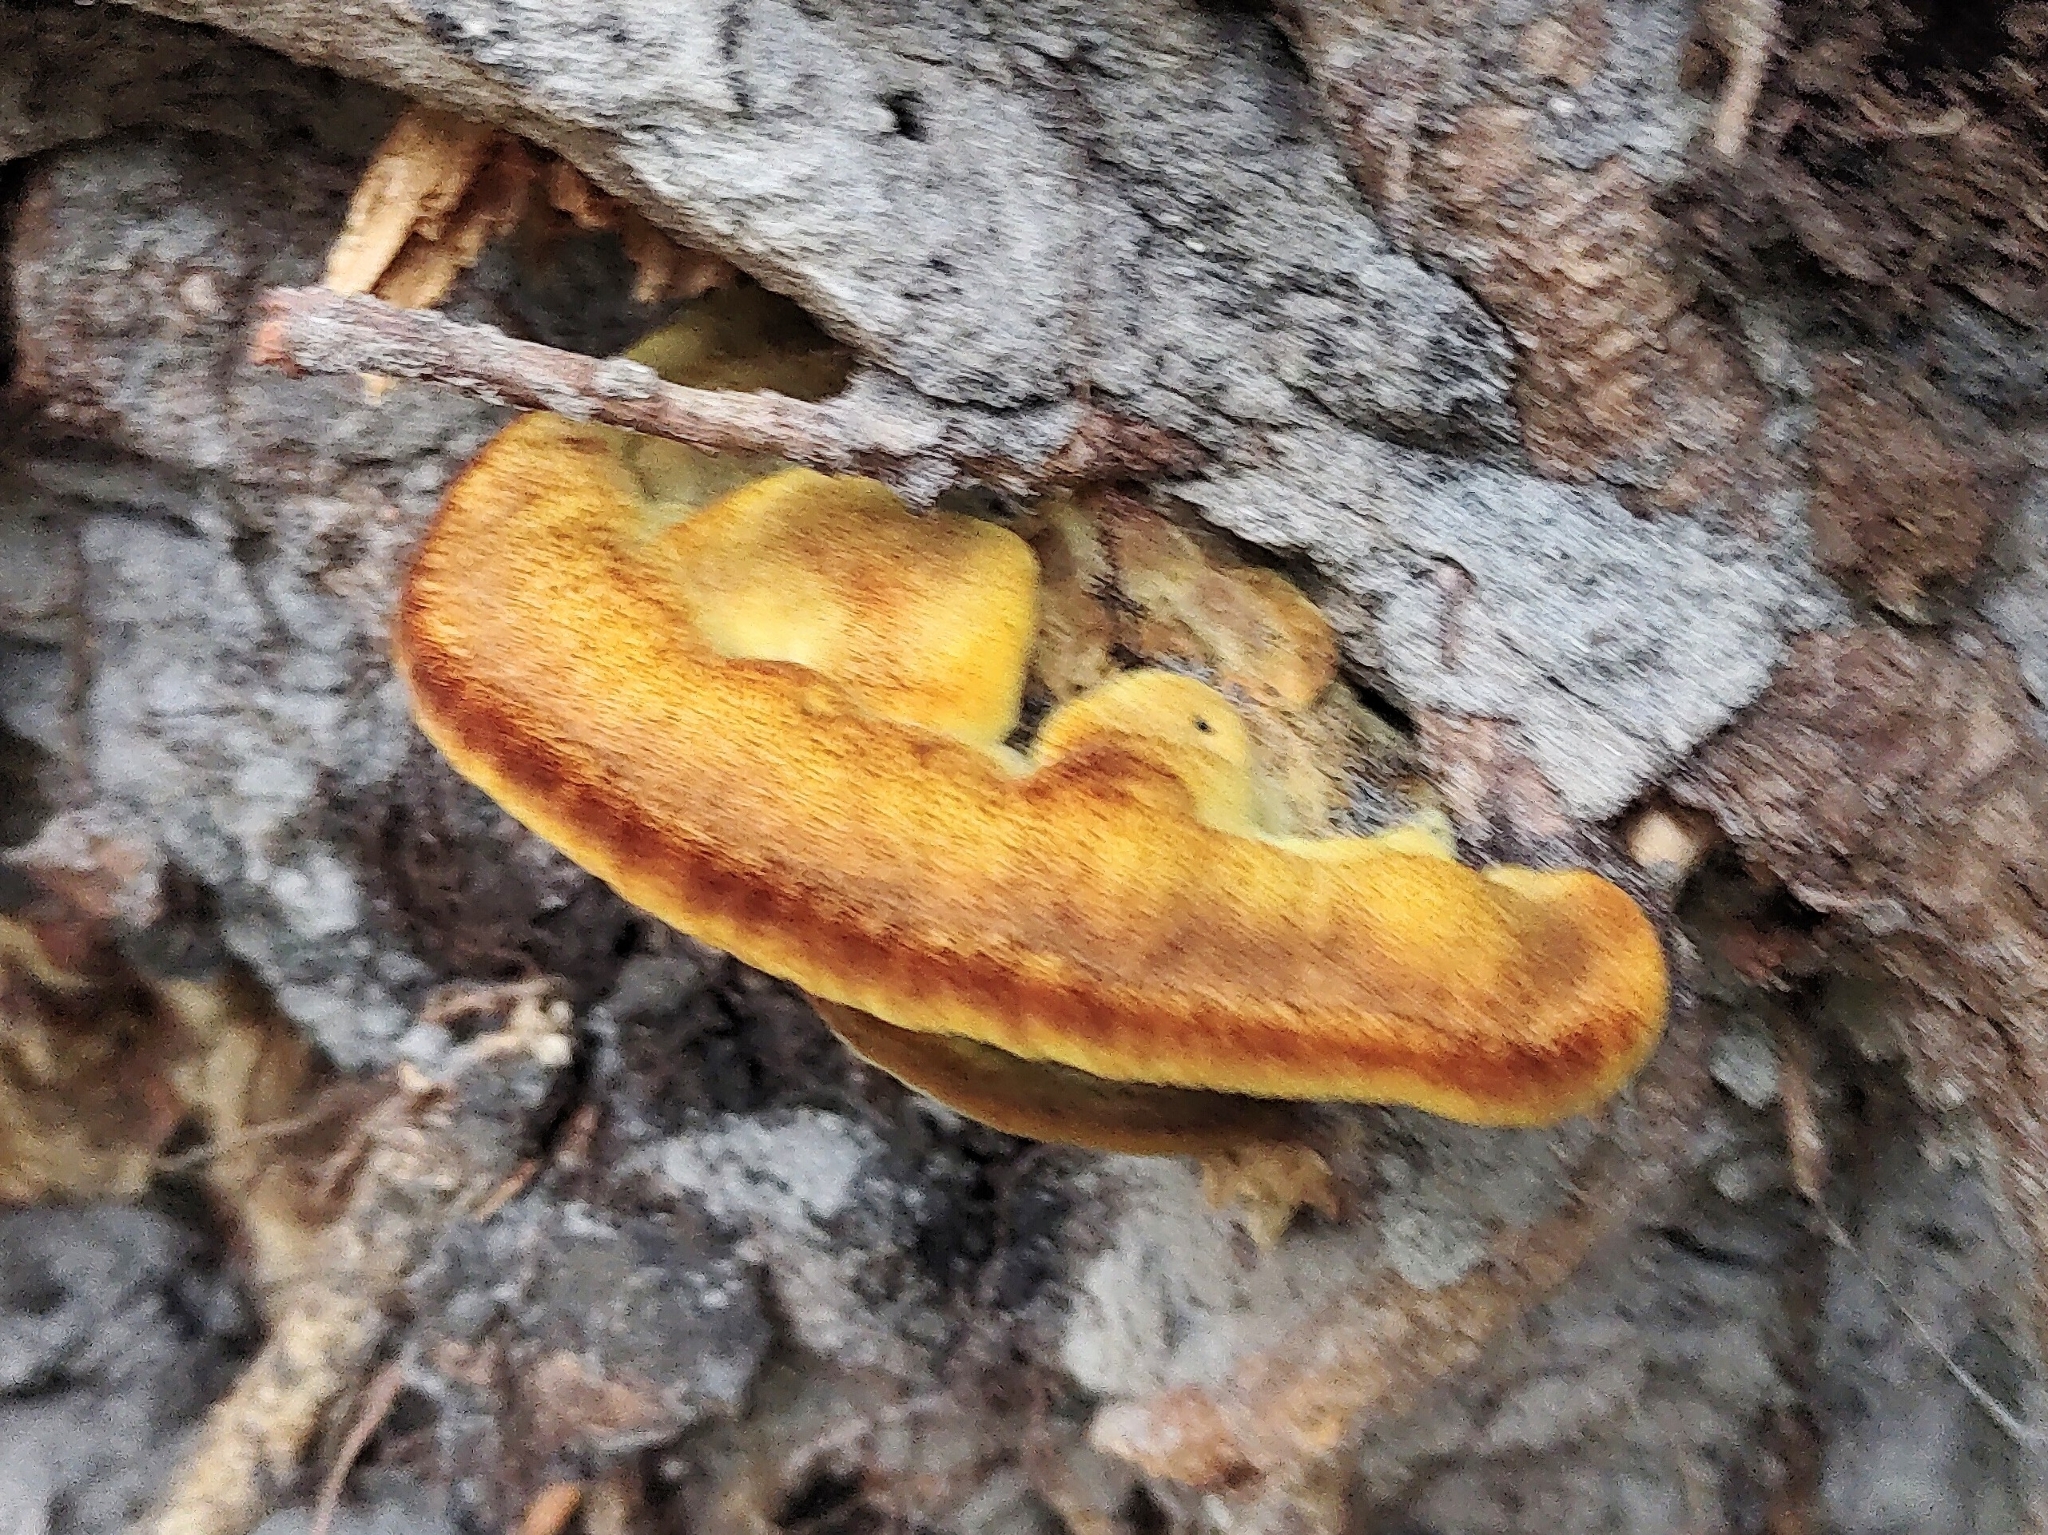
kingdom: Fungi
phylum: Basidiomycota
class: Agaricomycetes
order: Polyporales
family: Laetiporaceae
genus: Phaeolus
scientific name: Phaeolus schweinitzii
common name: Dyer's mazegill
